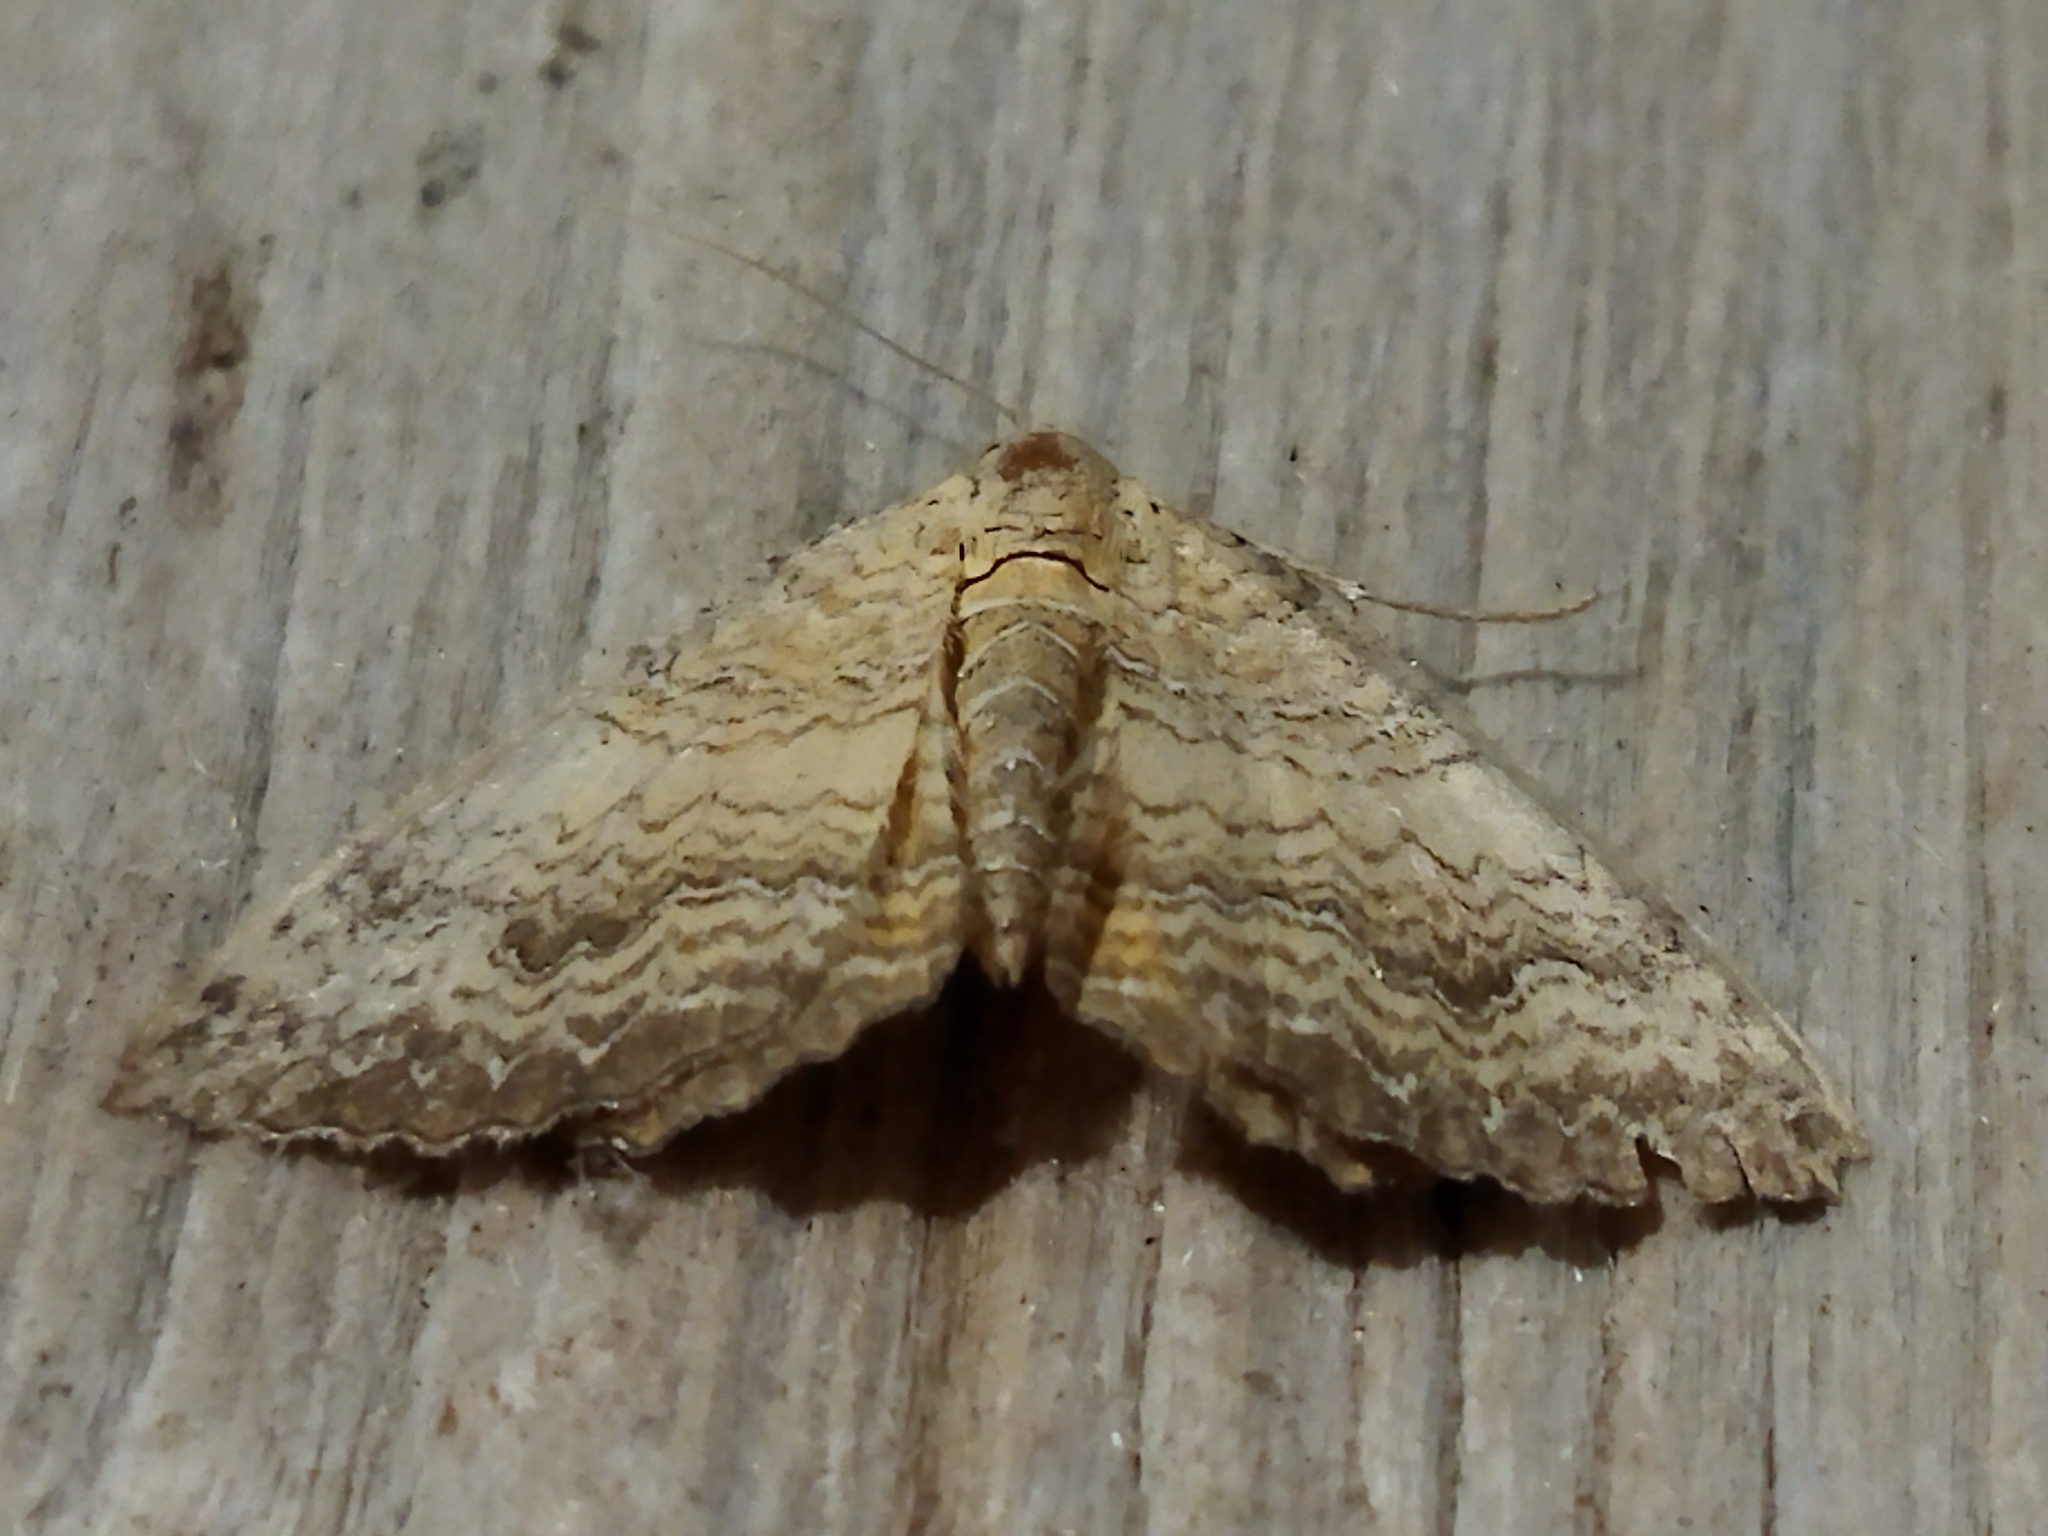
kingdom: Animalia
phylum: Arthropoda
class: Insecta
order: Lepidoptera
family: Geometridae
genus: Camptogramma
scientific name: Camptogramma bilineata
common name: Yellow shell
